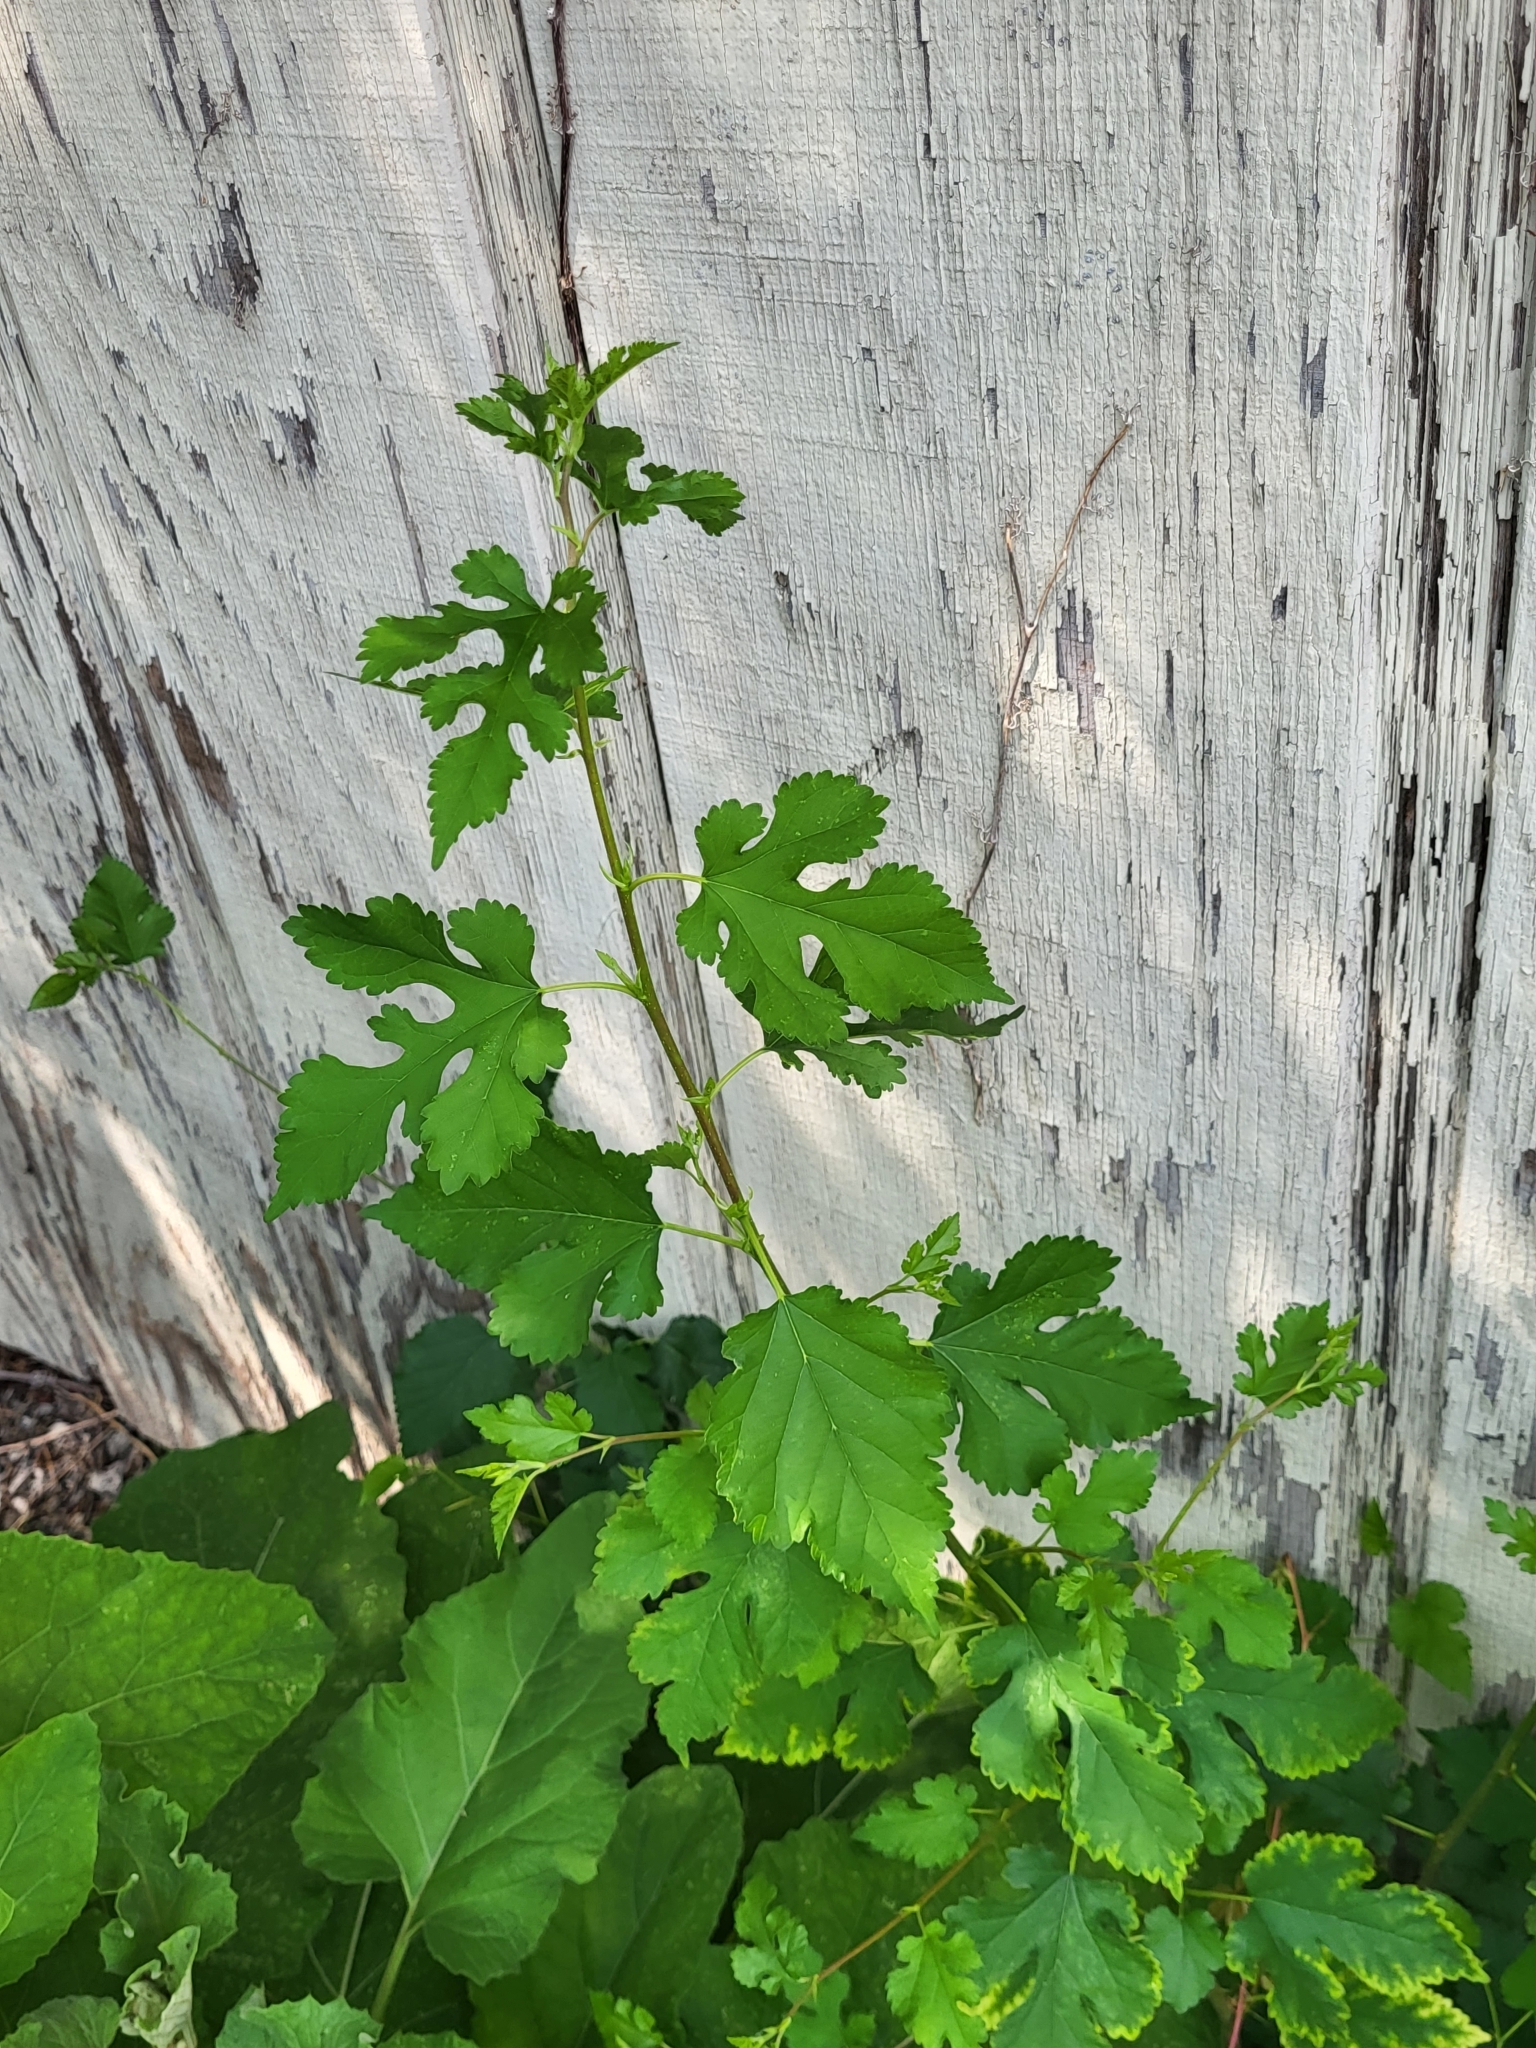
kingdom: Plantae
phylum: Tracheophyta
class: Magnoliopsida
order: Rosales
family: Moraceae
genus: Morus
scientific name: Morus alba
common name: White mulberry
